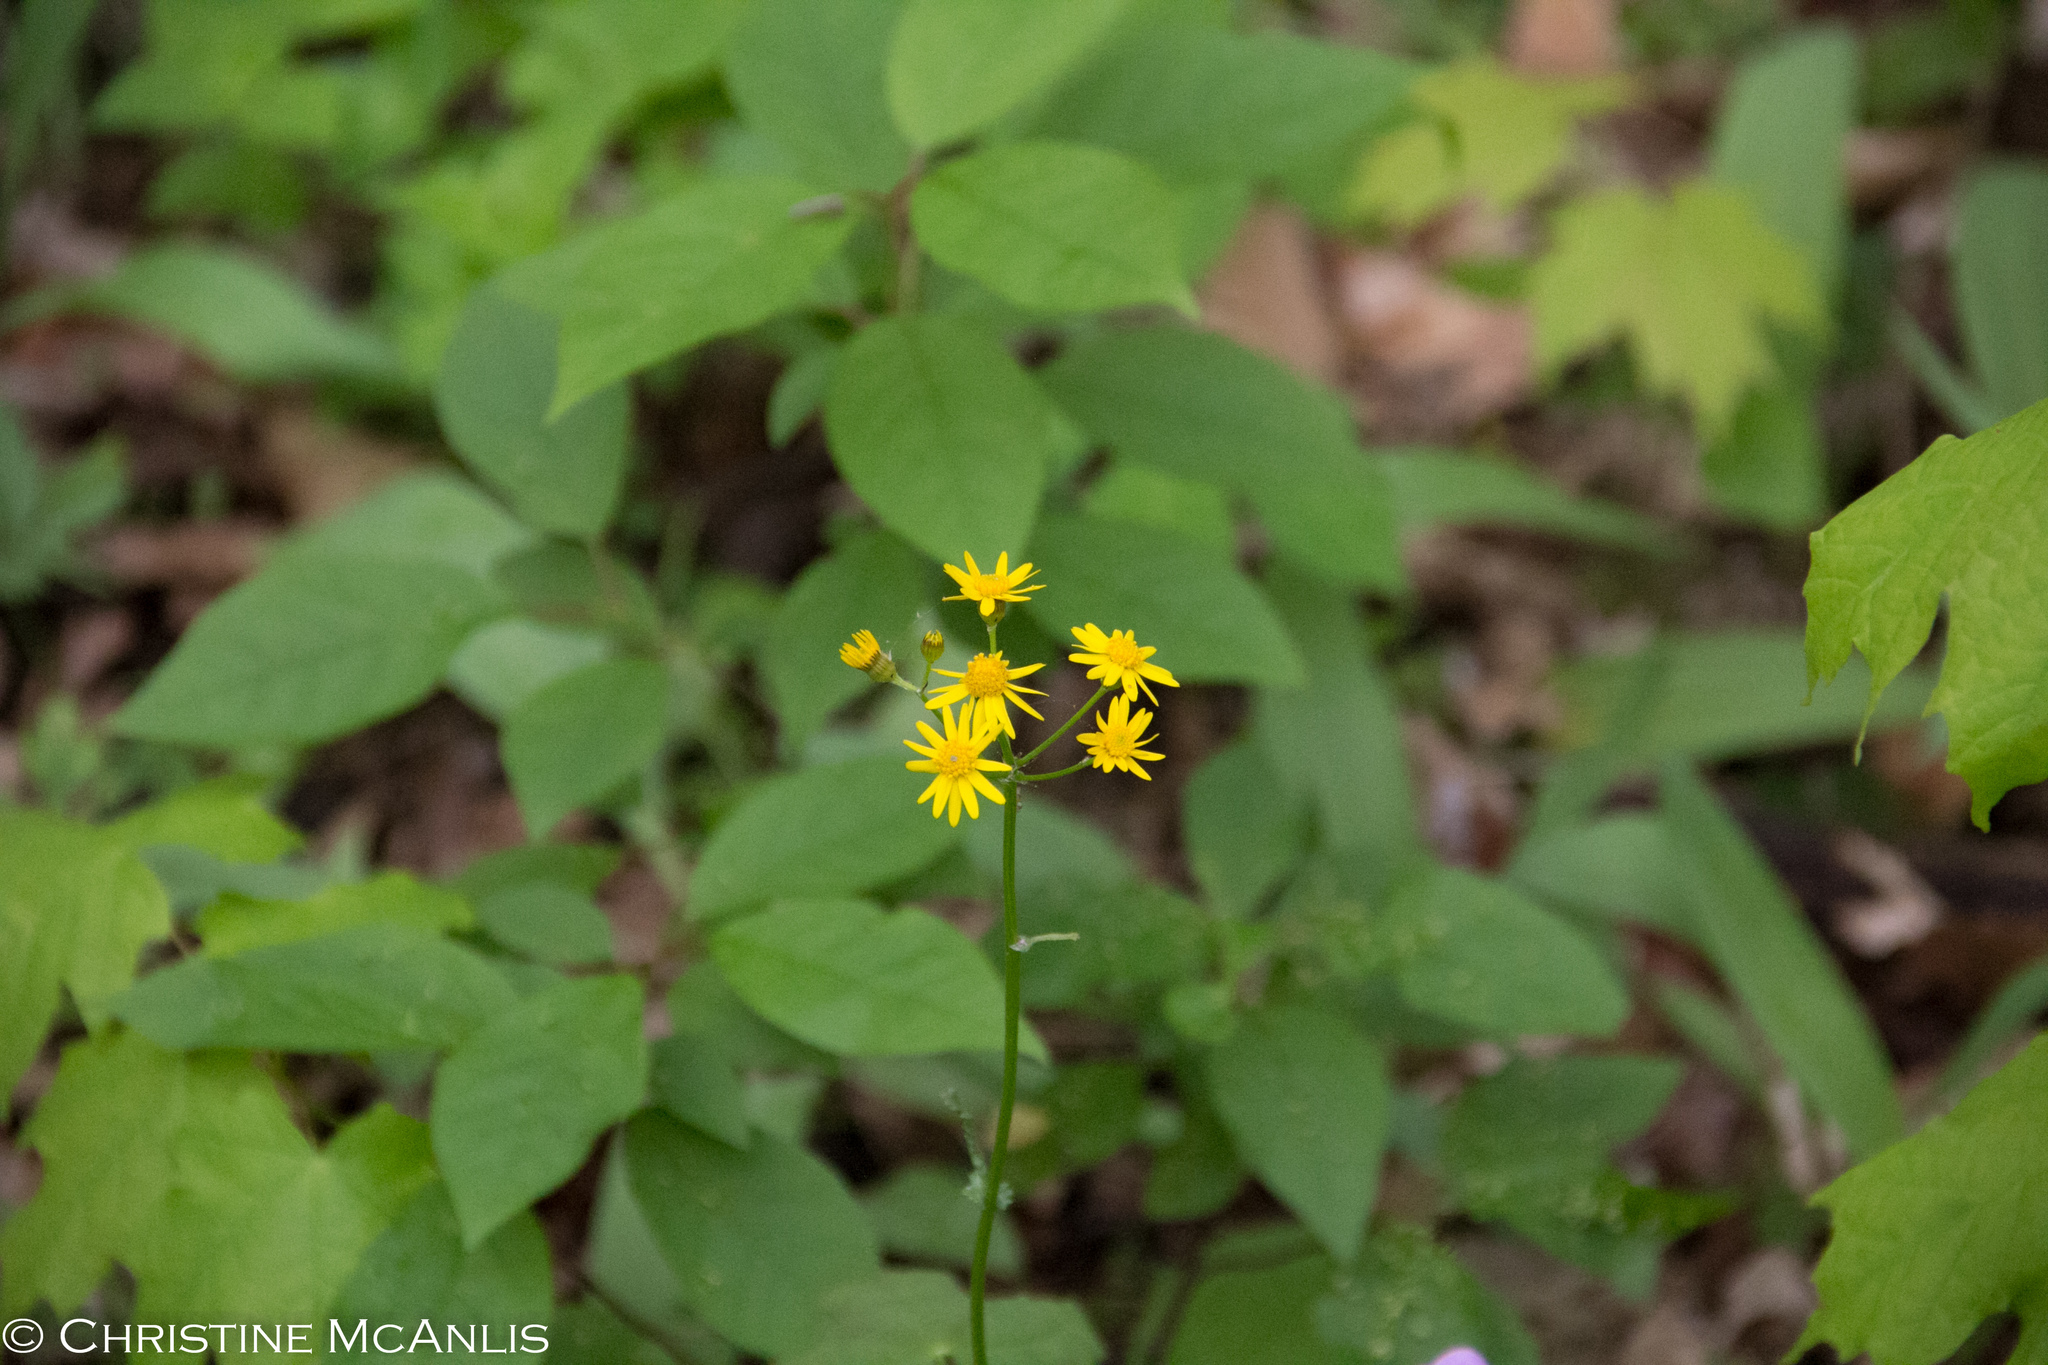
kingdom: Plantae
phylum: Tracheophyta
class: Magnoliopsida
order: Asterales
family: Asteraceae
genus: Packera
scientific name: Packera obovata
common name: Round-leaf ragwort
